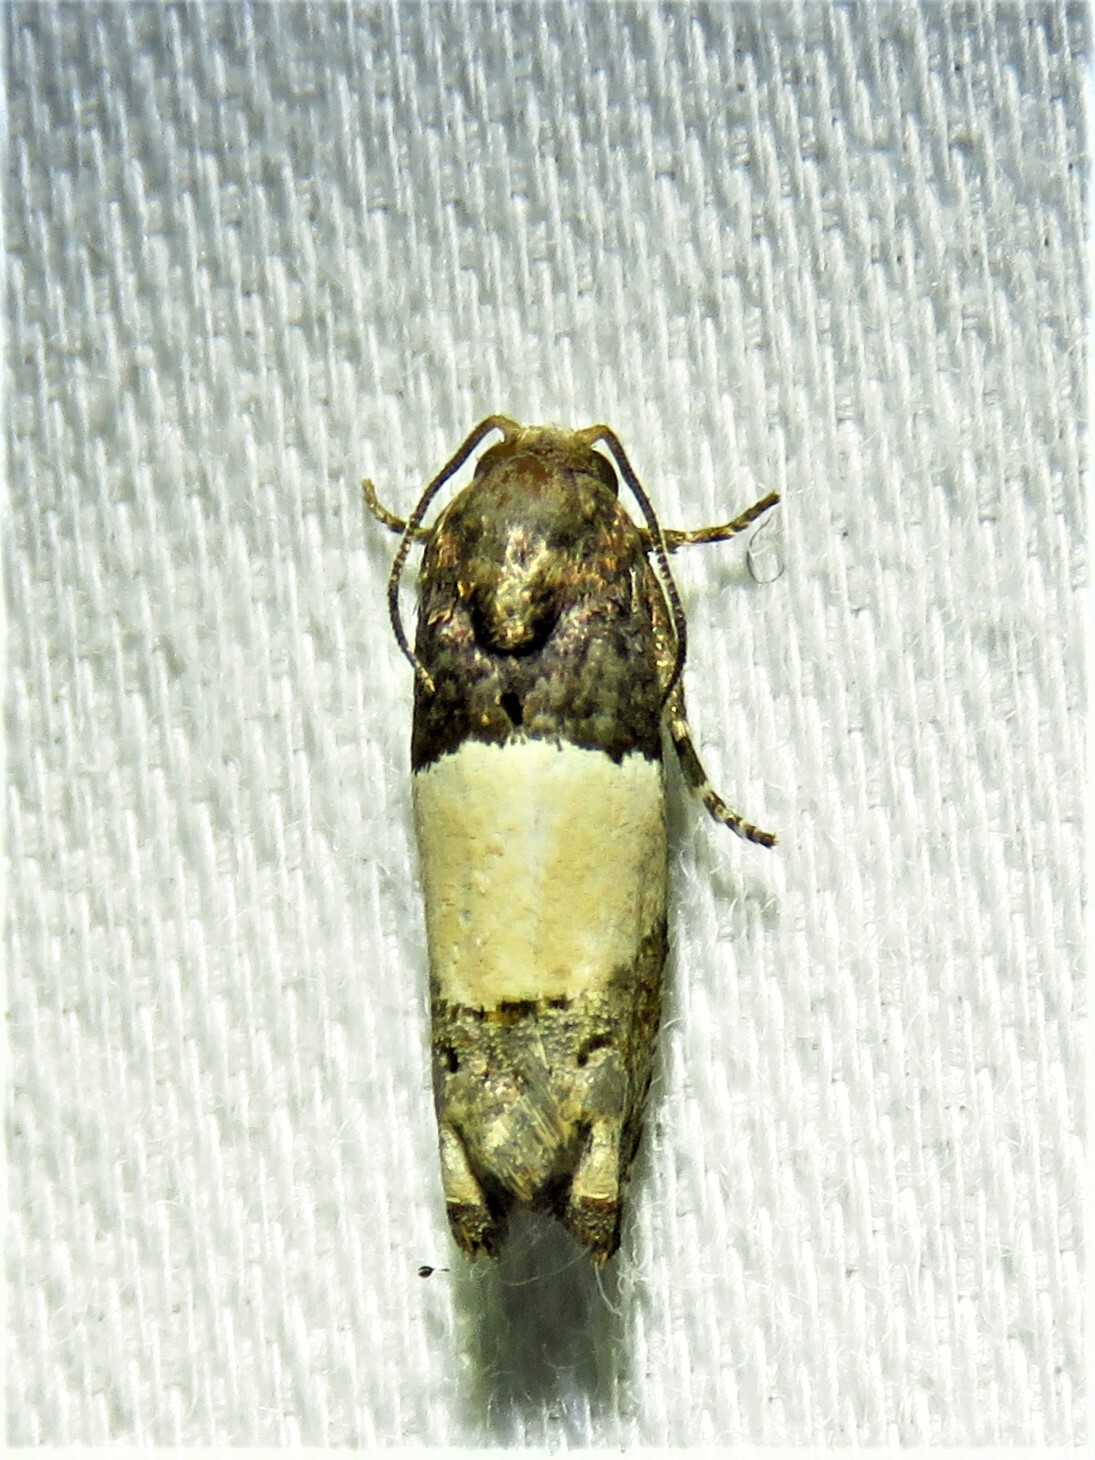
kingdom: Animalia
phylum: Arthropoda
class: Insecta
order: Lepidoptera
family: Tortricidae
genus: Epiblema
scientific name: Epiblema scudderiana
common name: Goldenrod gall moth
